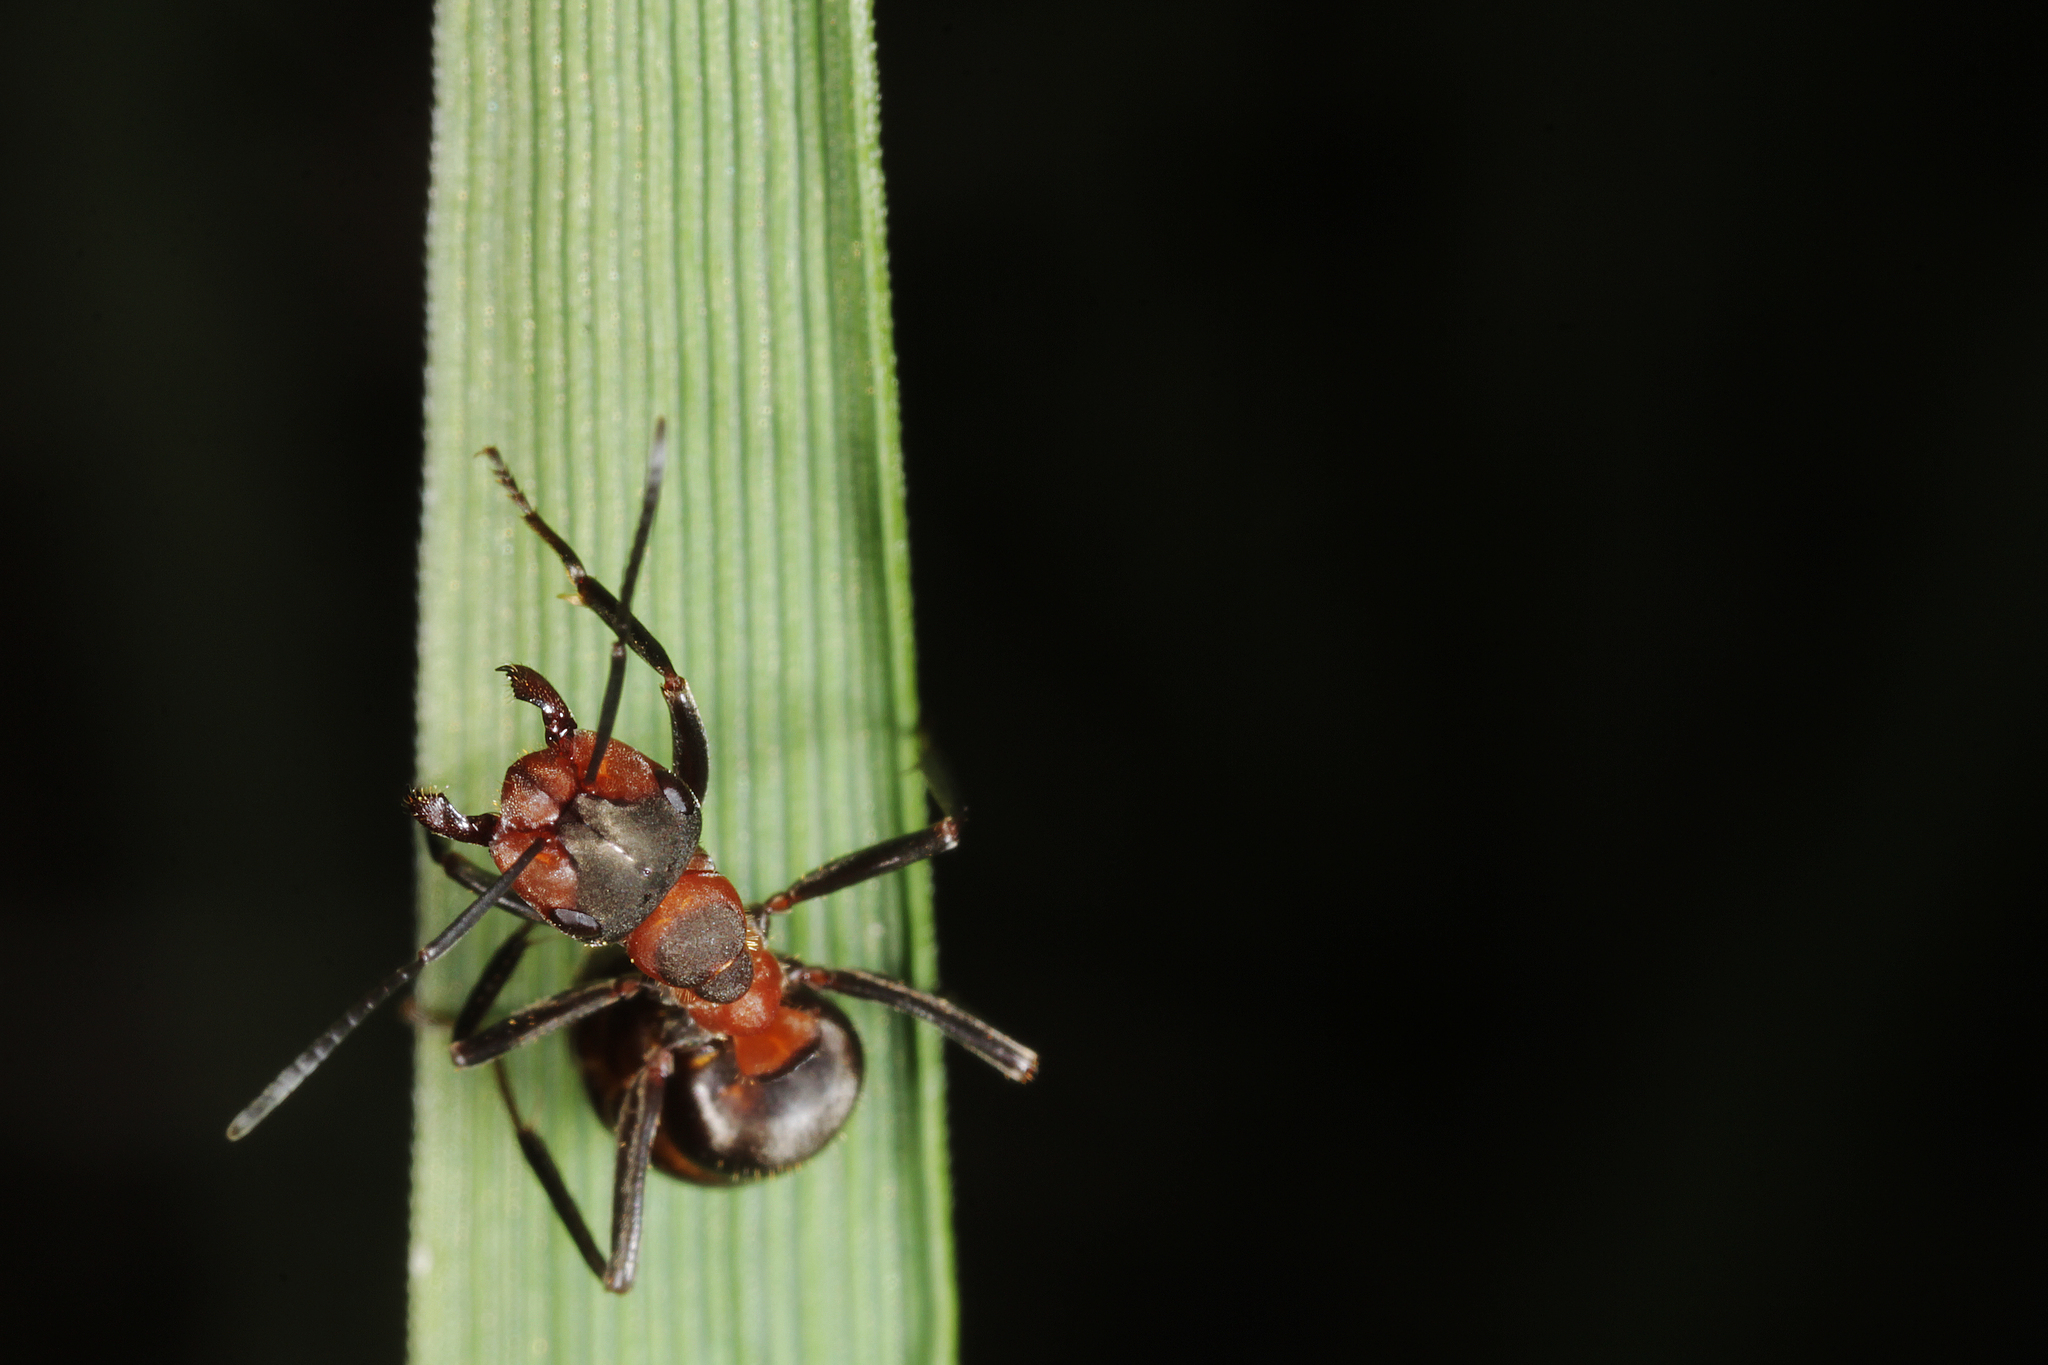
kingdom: Animalia
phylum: Arthropoda
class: Insecta
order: Hymenoptera
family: Formicidae
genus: Formica
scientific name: Formica pratensis
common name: European red wood ant
